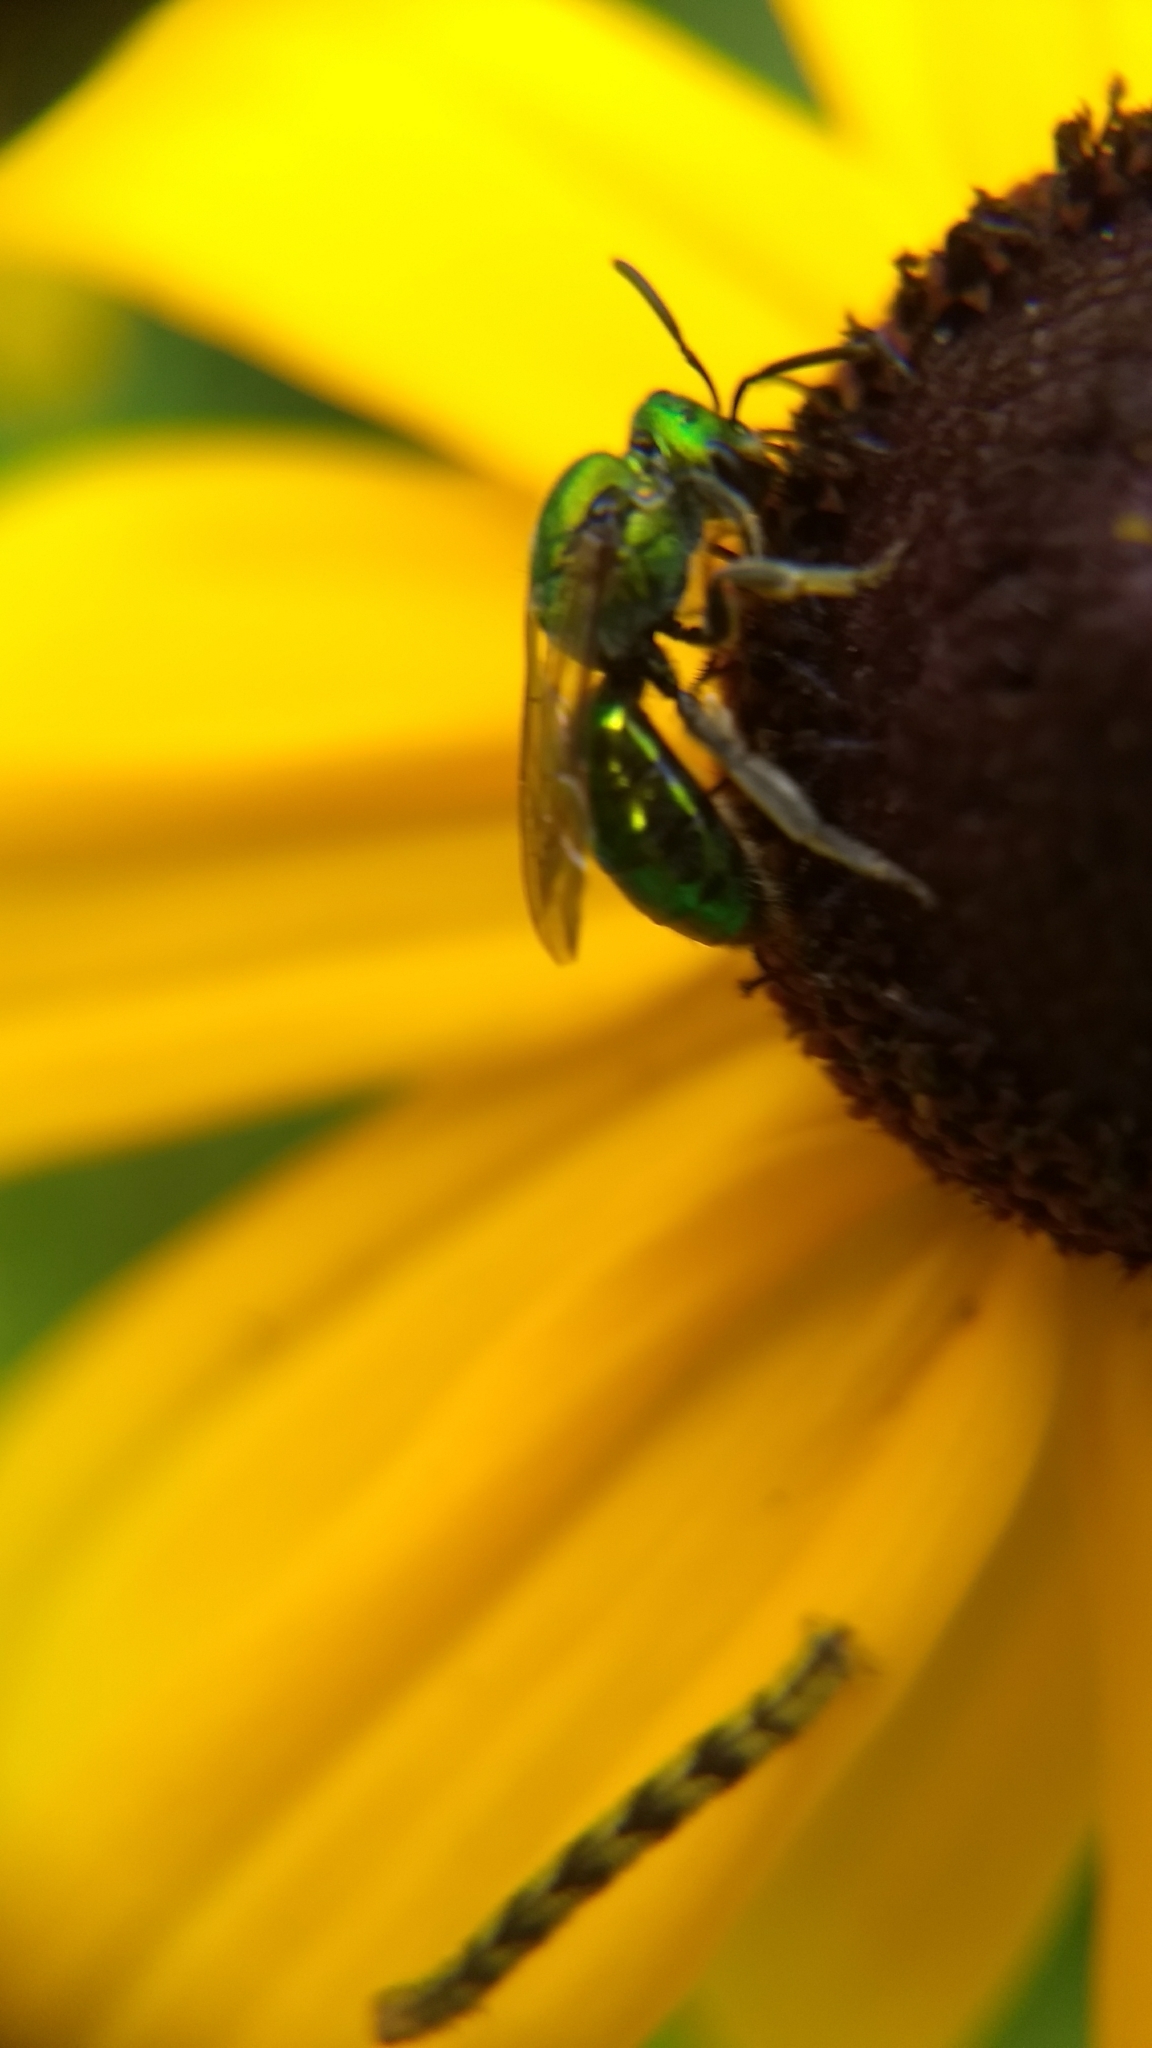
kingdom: Animalia
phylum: Arthropoda
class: Insecta
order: Hymenoptera
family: Halictidae
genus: Augochlora
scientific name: Augochlora pura
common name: Pure green sweat bee
